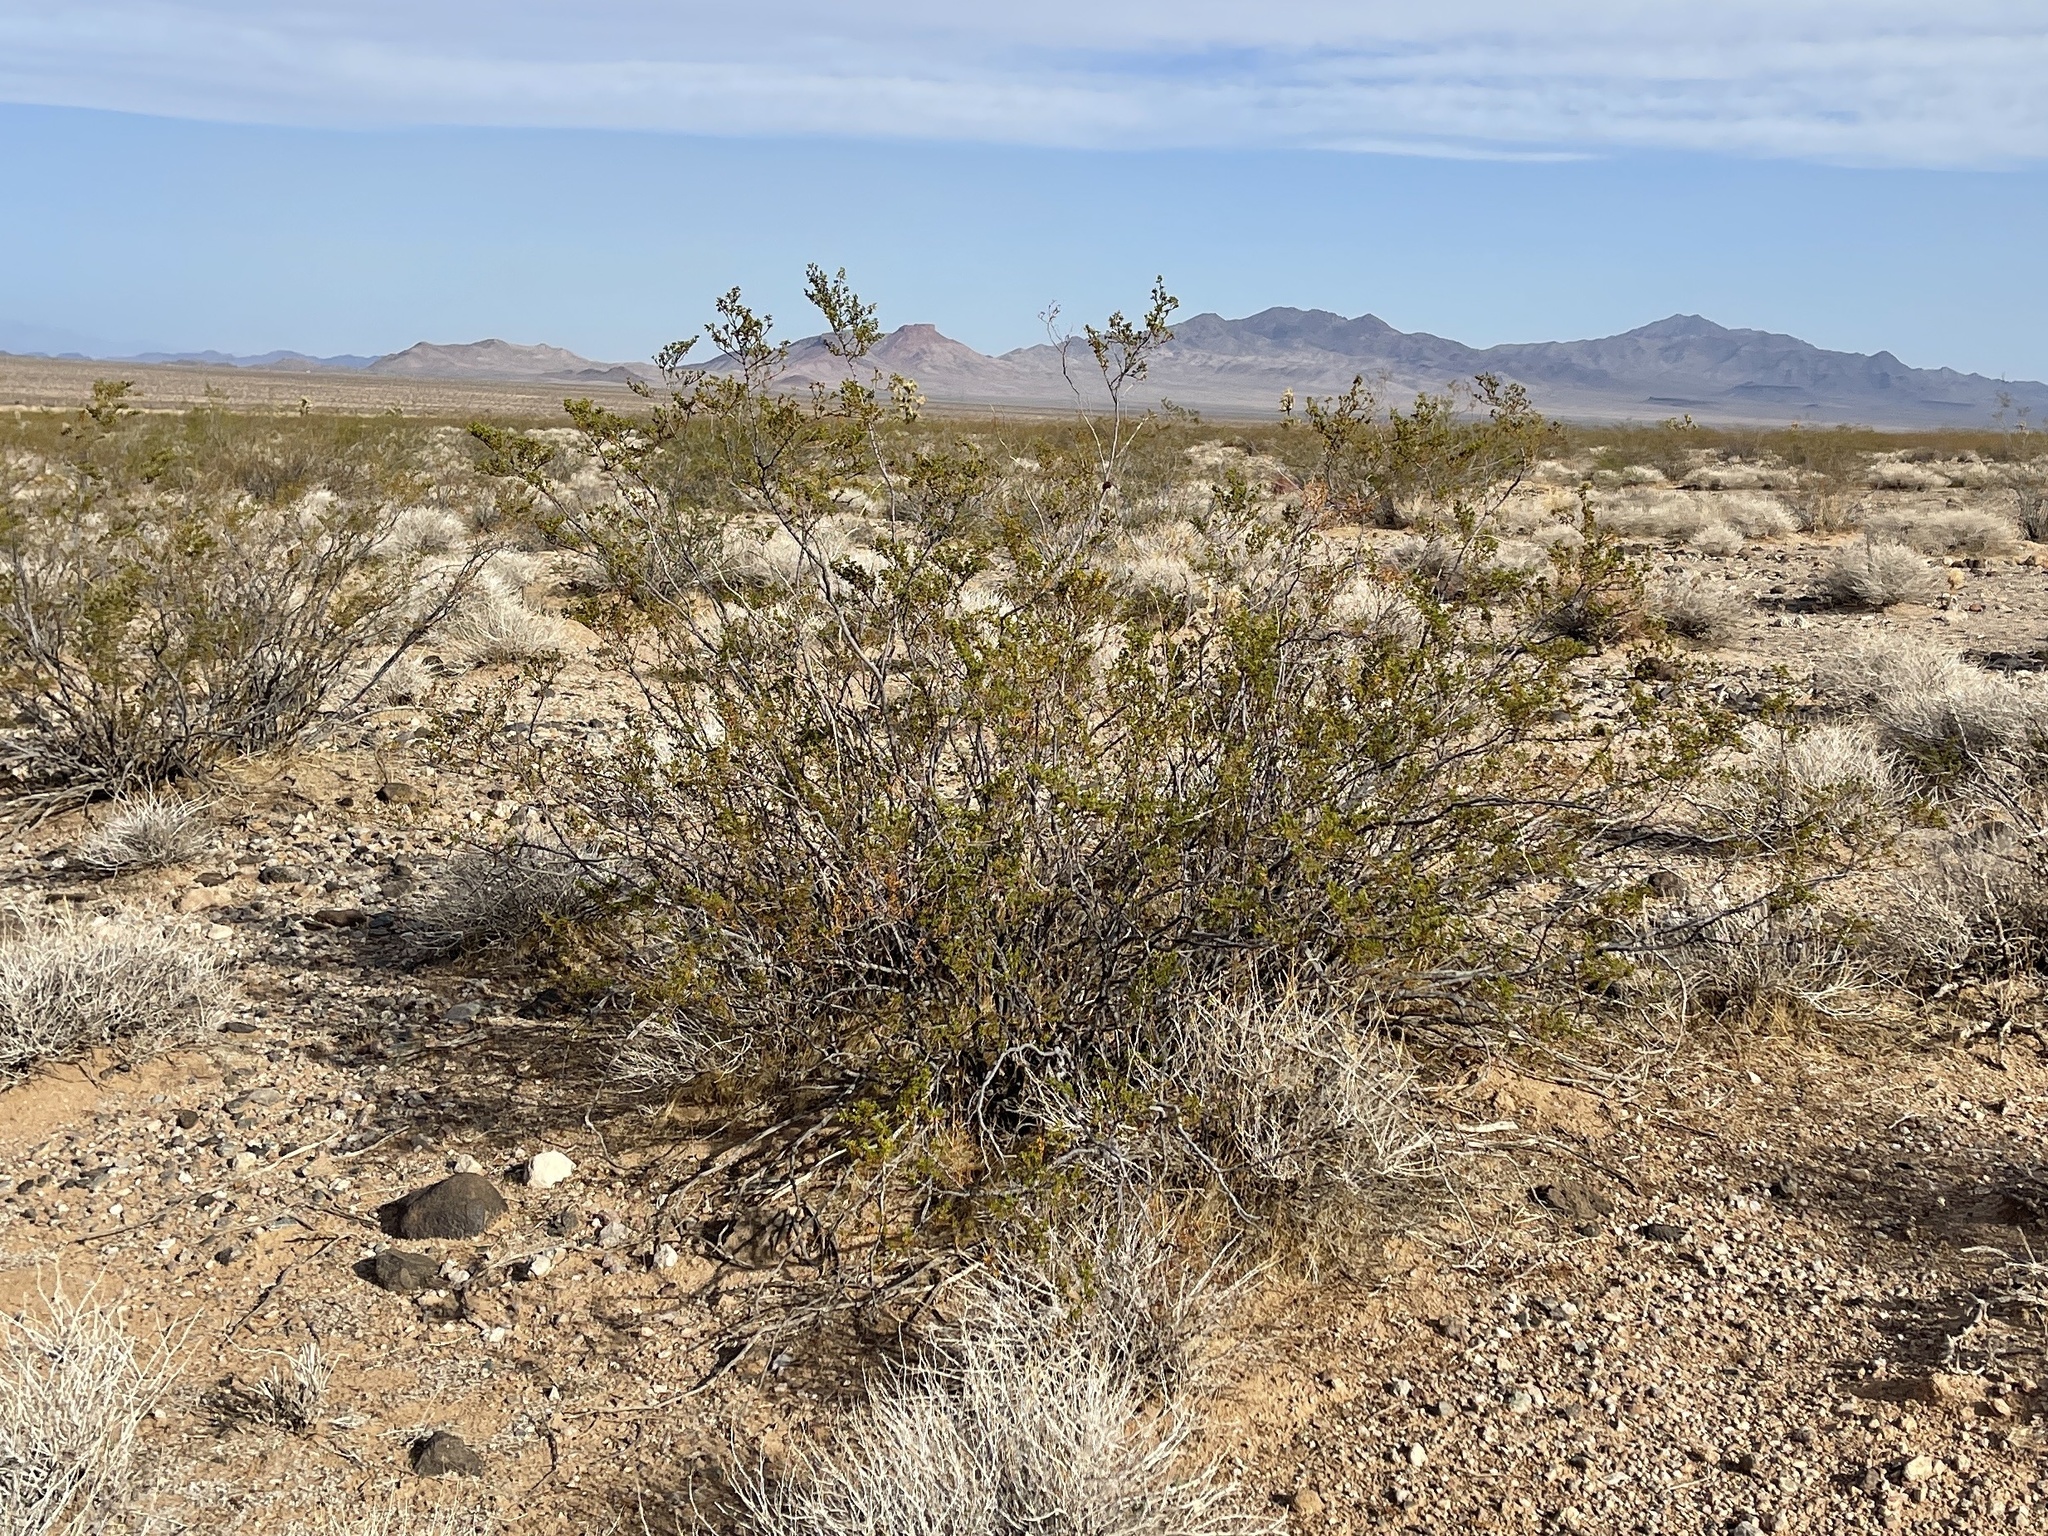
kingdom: Plantae
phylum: Tracheophyta
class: Magnoliopsida
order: Zygophyllales
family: Zygophyllaceae
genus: Larrea
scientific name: Larrea tridentata
